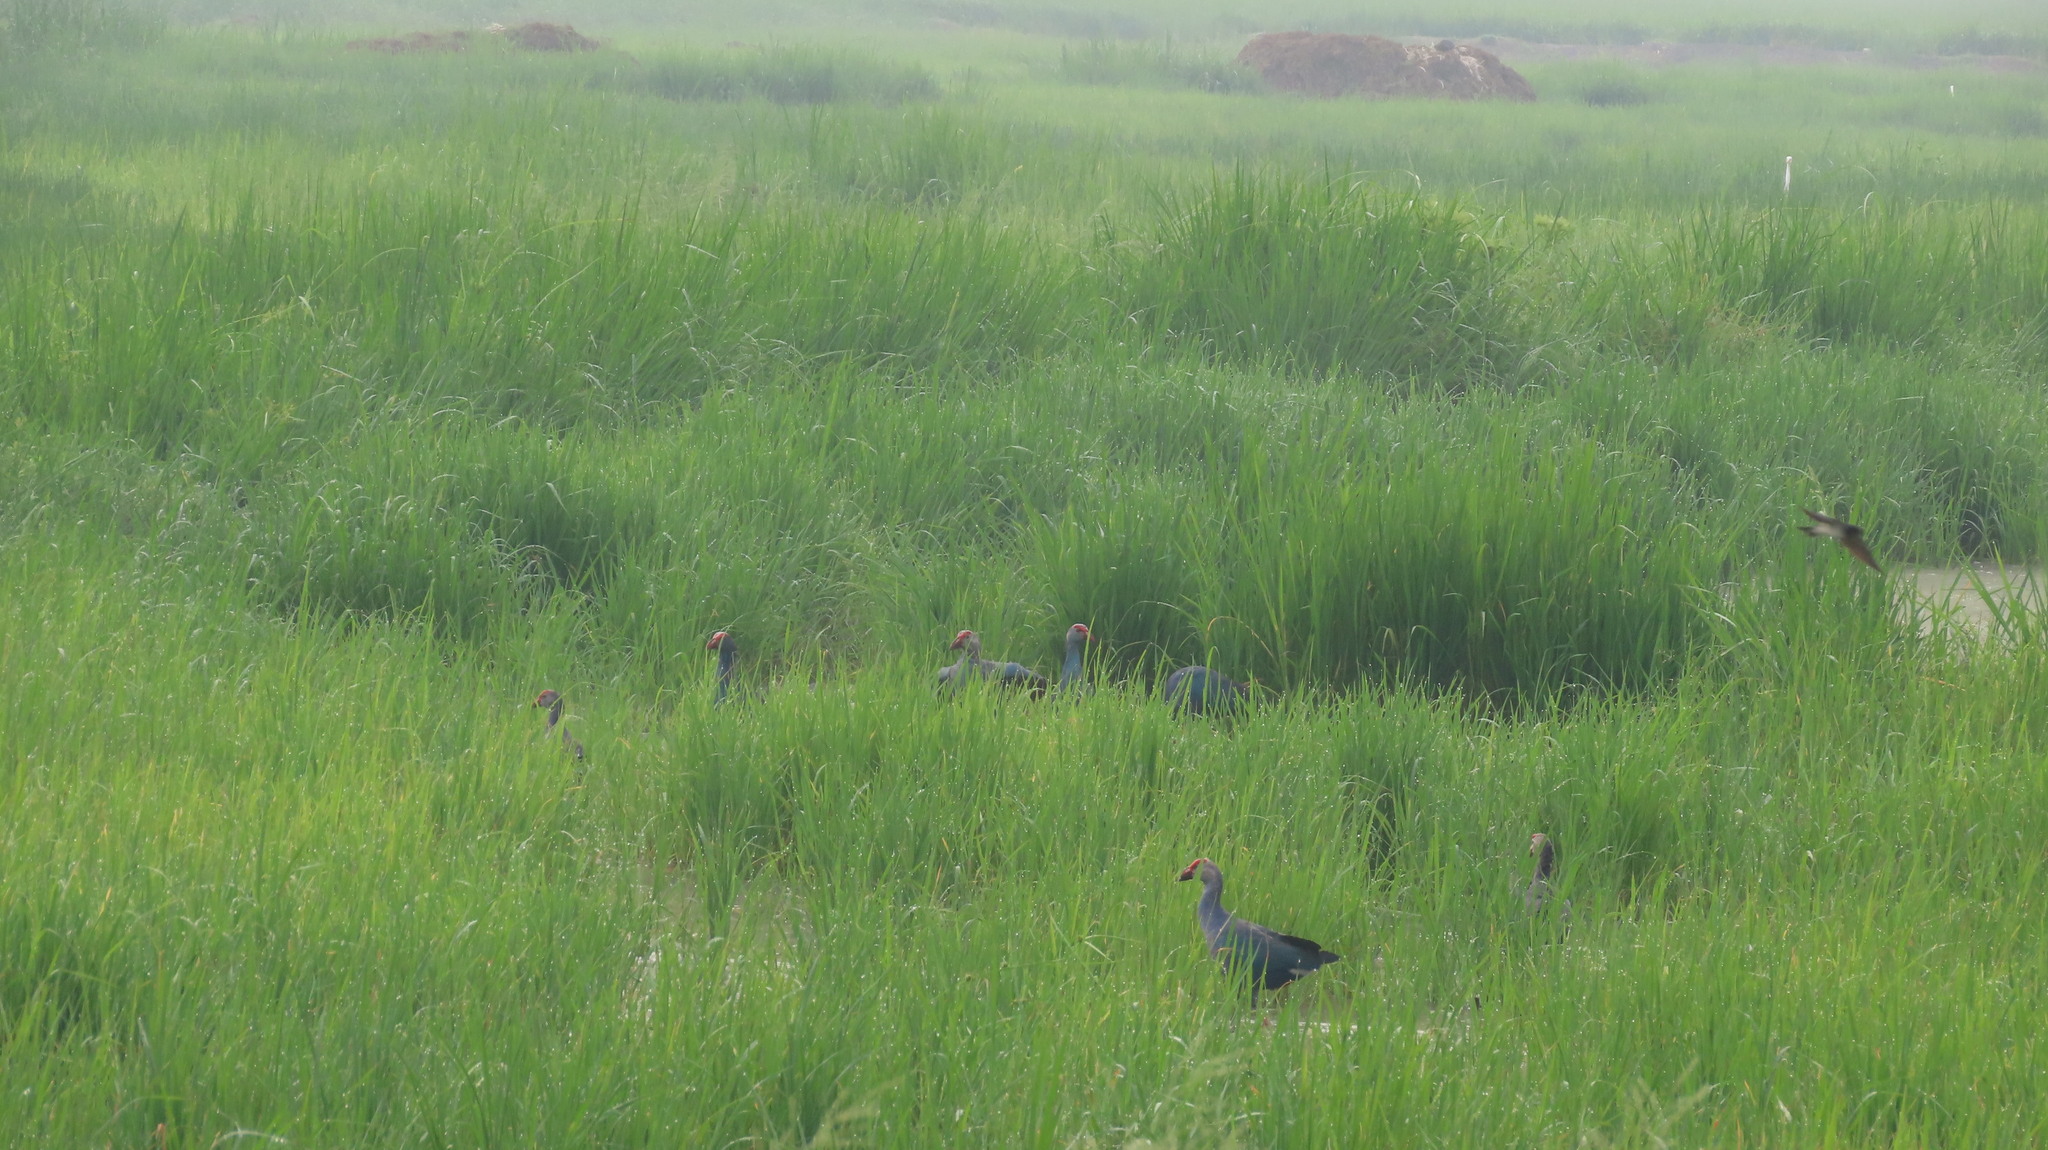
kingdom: Animalia
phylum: Chordata
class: Aves
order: Gruiformes
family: Rallidae
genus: Porphyrio
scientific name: Porphyrio porphyrio
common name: Purple swamphen
